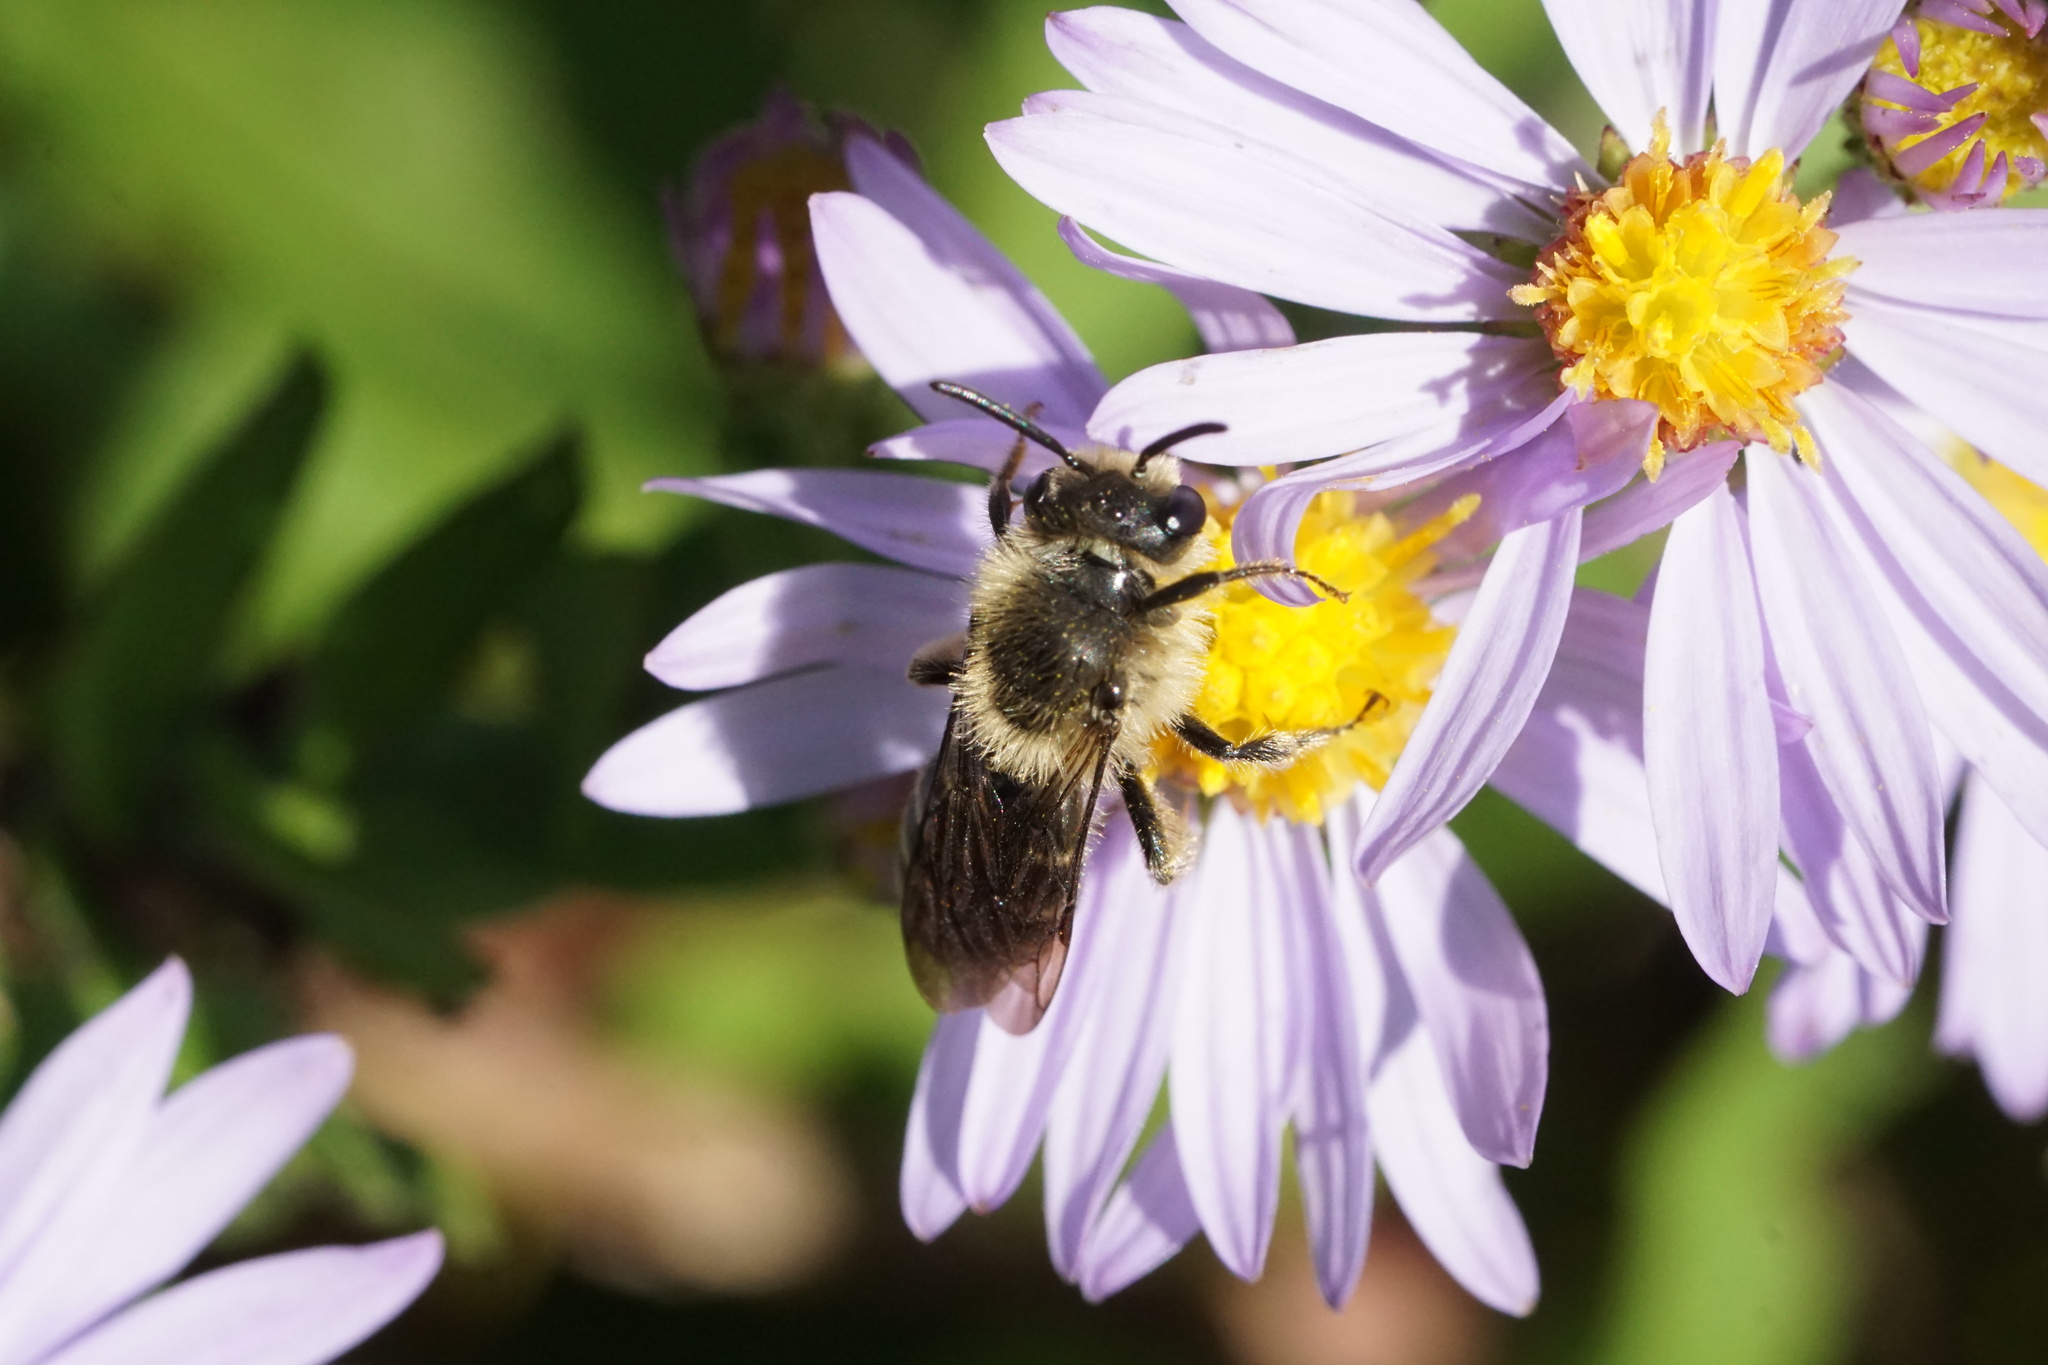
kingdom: Animalia
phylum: Arthropoda
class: Insecta
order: Hymenoptera
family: Andrenidae
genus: Andrena
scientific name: Andrena asteris
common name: Aster mining bee
